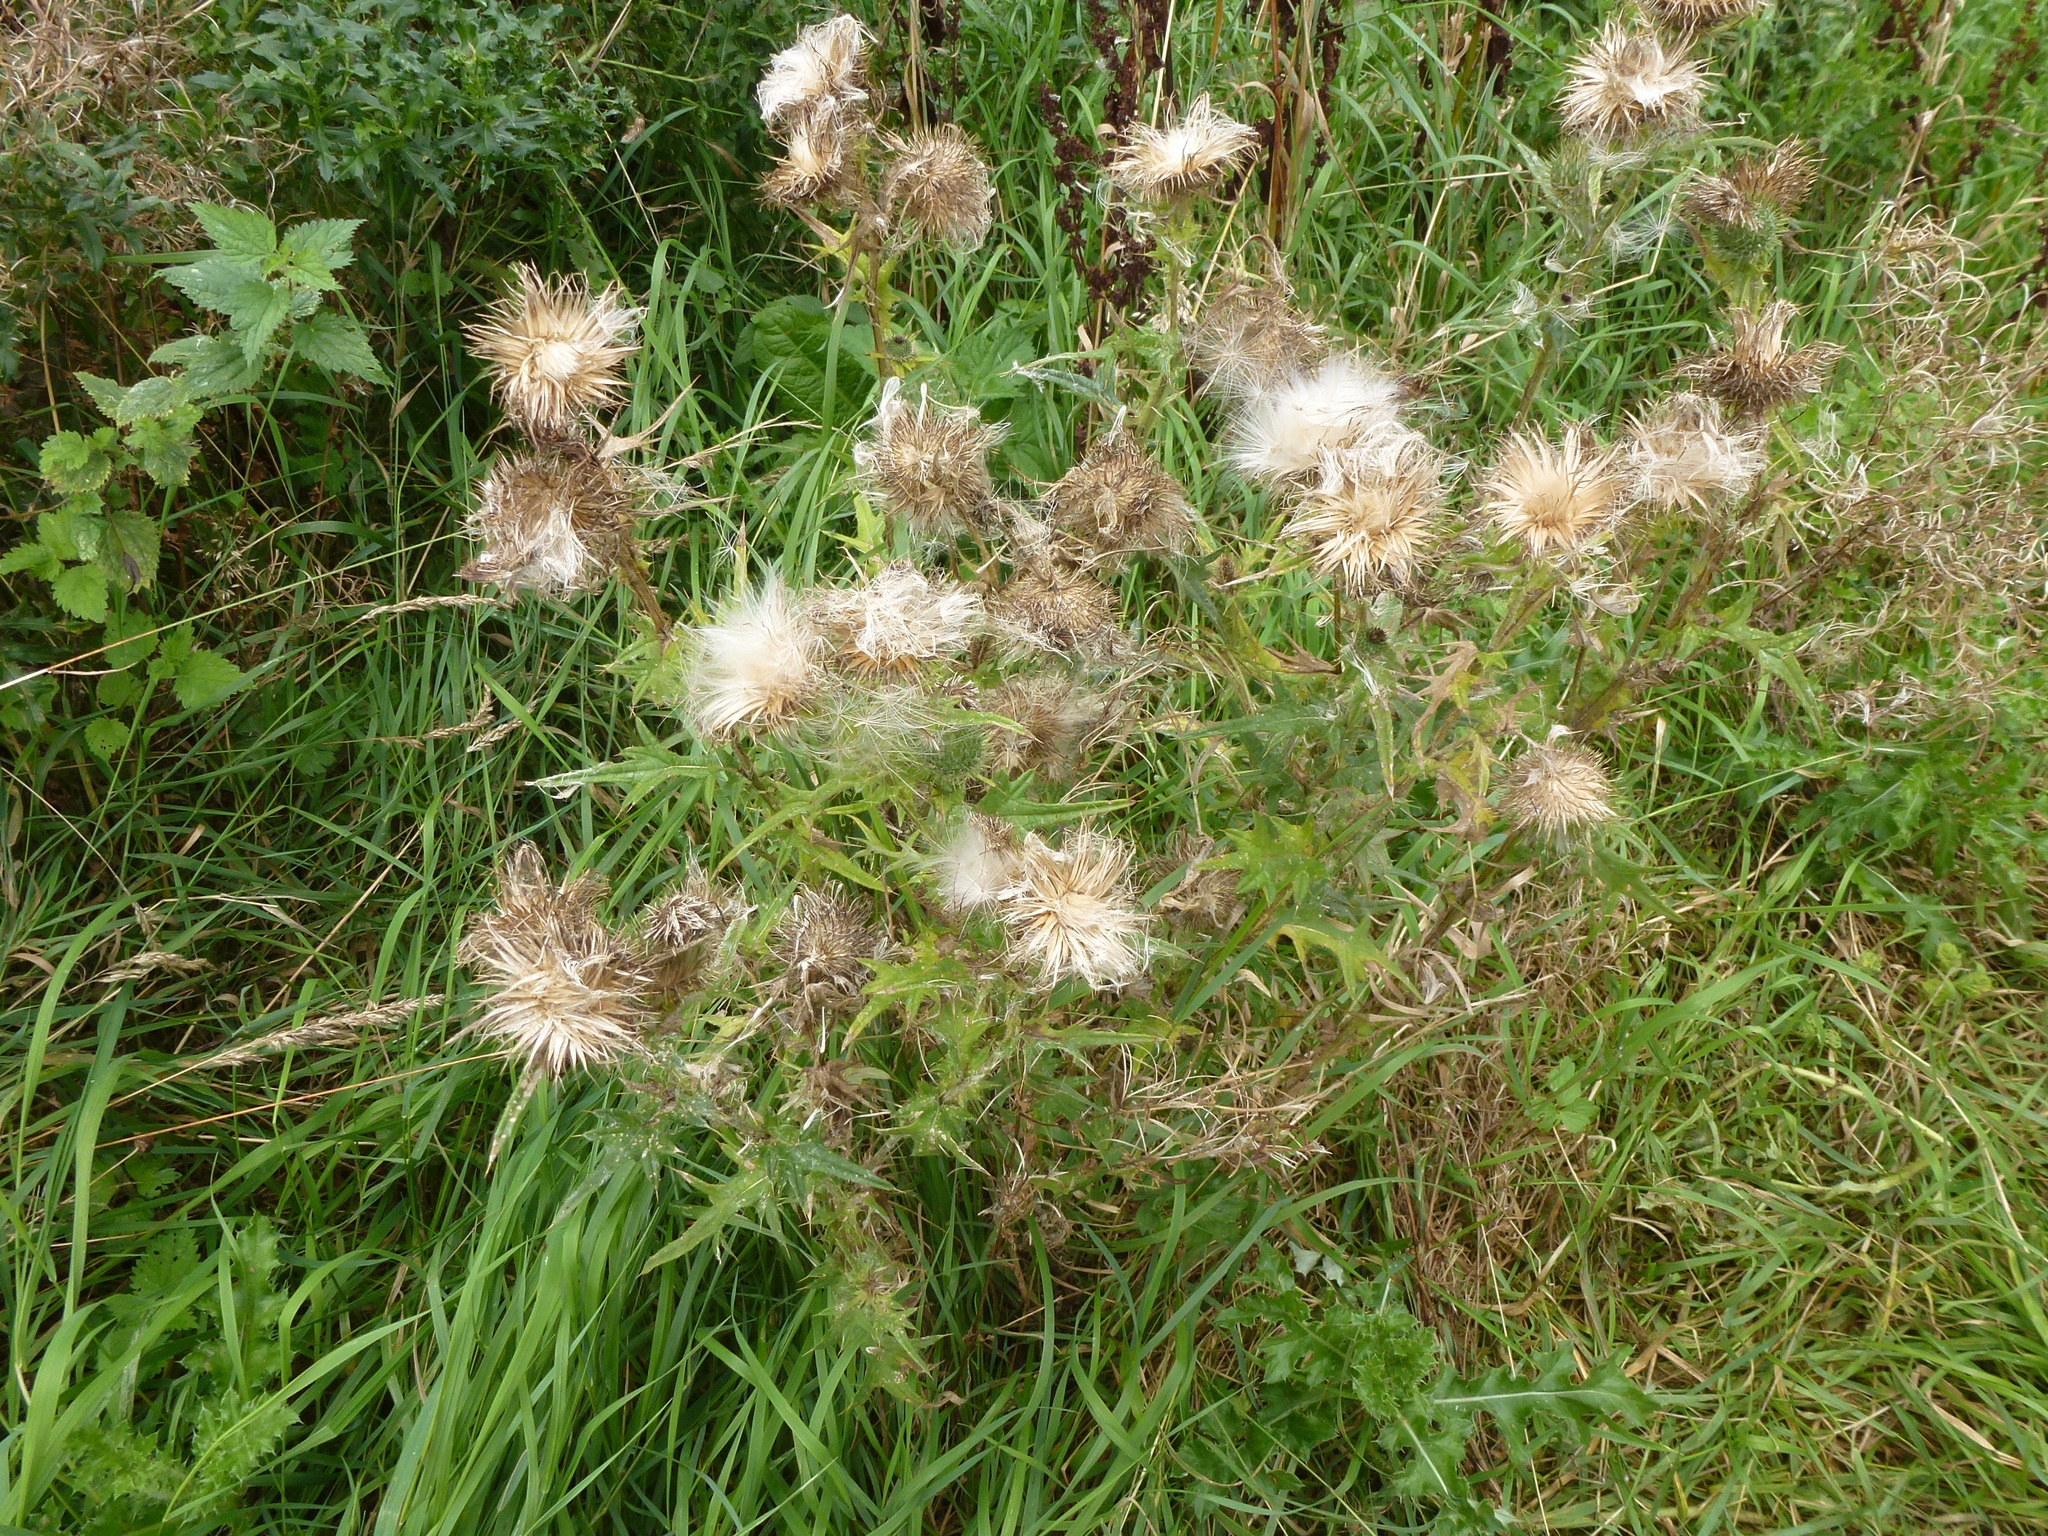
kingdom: Plantae
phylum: Tracheophyta
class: Magnoliopsida
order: Asterales
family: Asteraceae
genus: Cirsium
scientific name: Cirsium vulgare
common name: Bull thistle
